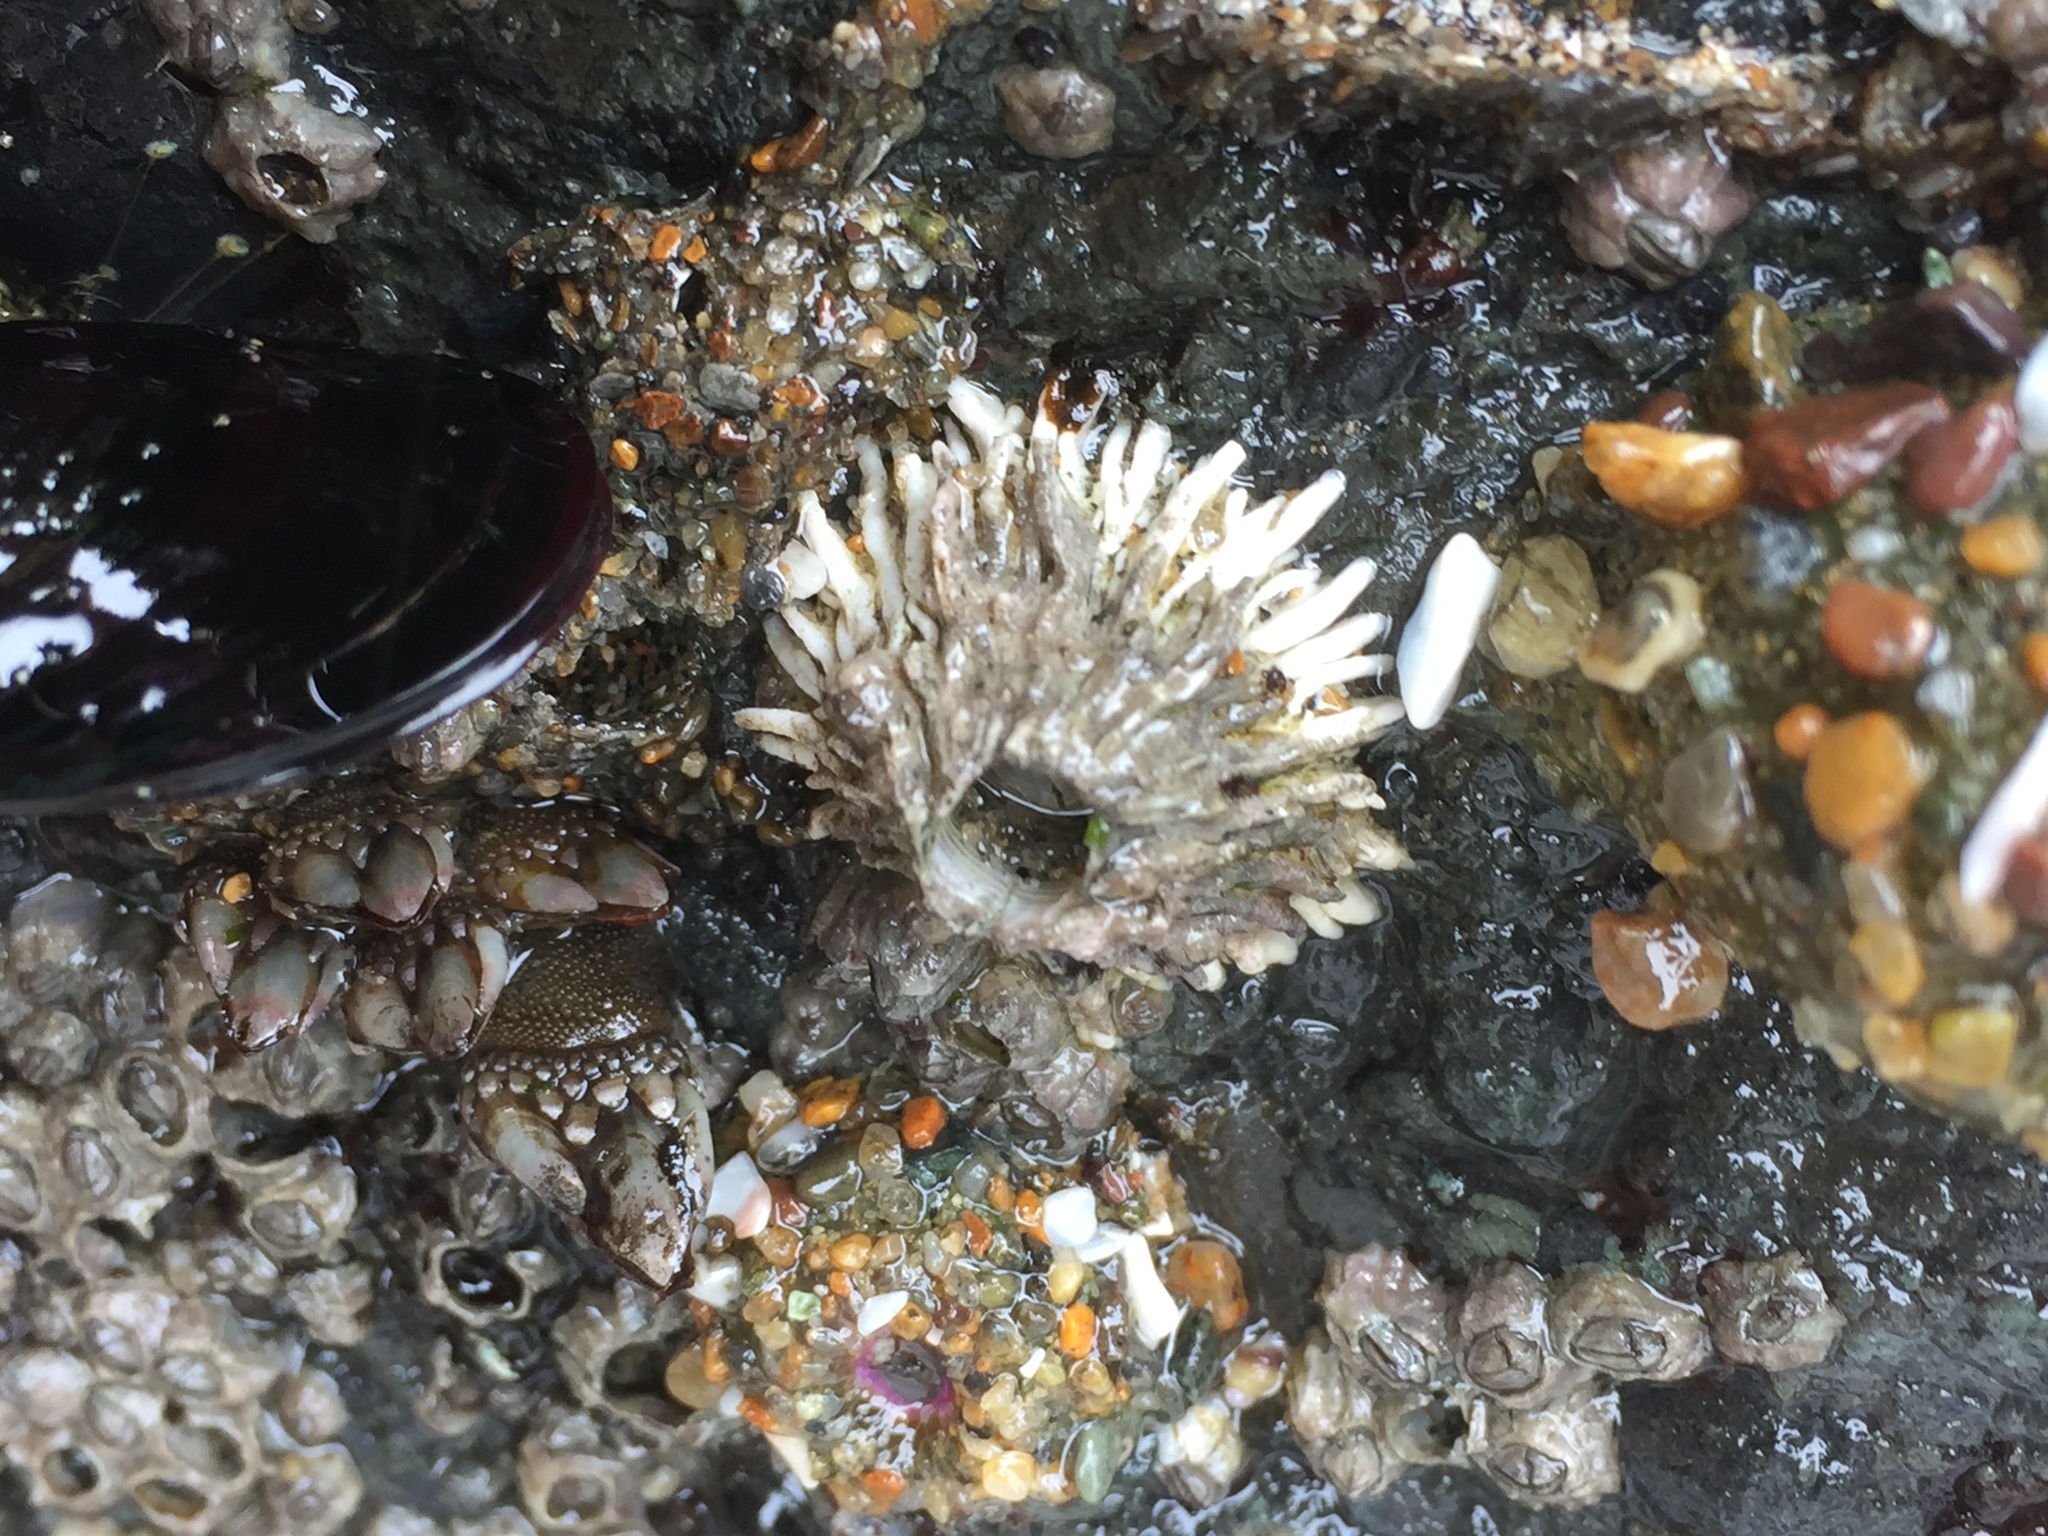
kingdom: Animalia
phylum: Arthropoda
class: Maxillopoda
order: Sessilia
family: Archaeobalanidae
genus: Semibalanus
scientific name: Semibalanus cariosus
